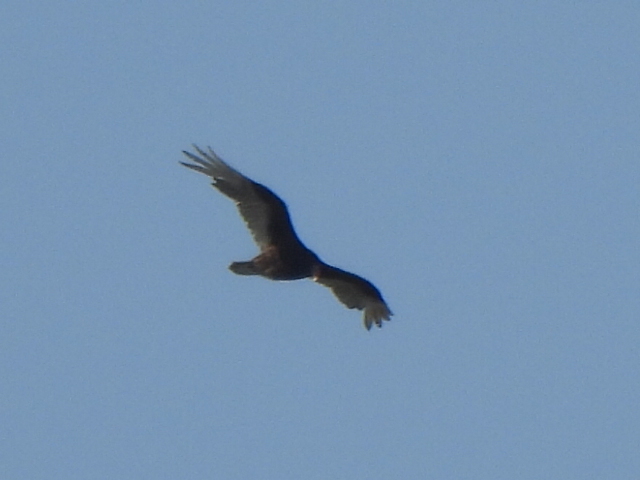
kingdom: Animalia
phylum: Chordata
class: Aves
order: Accipitriformes
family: Cathartidae
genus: Cathartes
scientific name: Cathartes aura
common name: Turkey vulture
